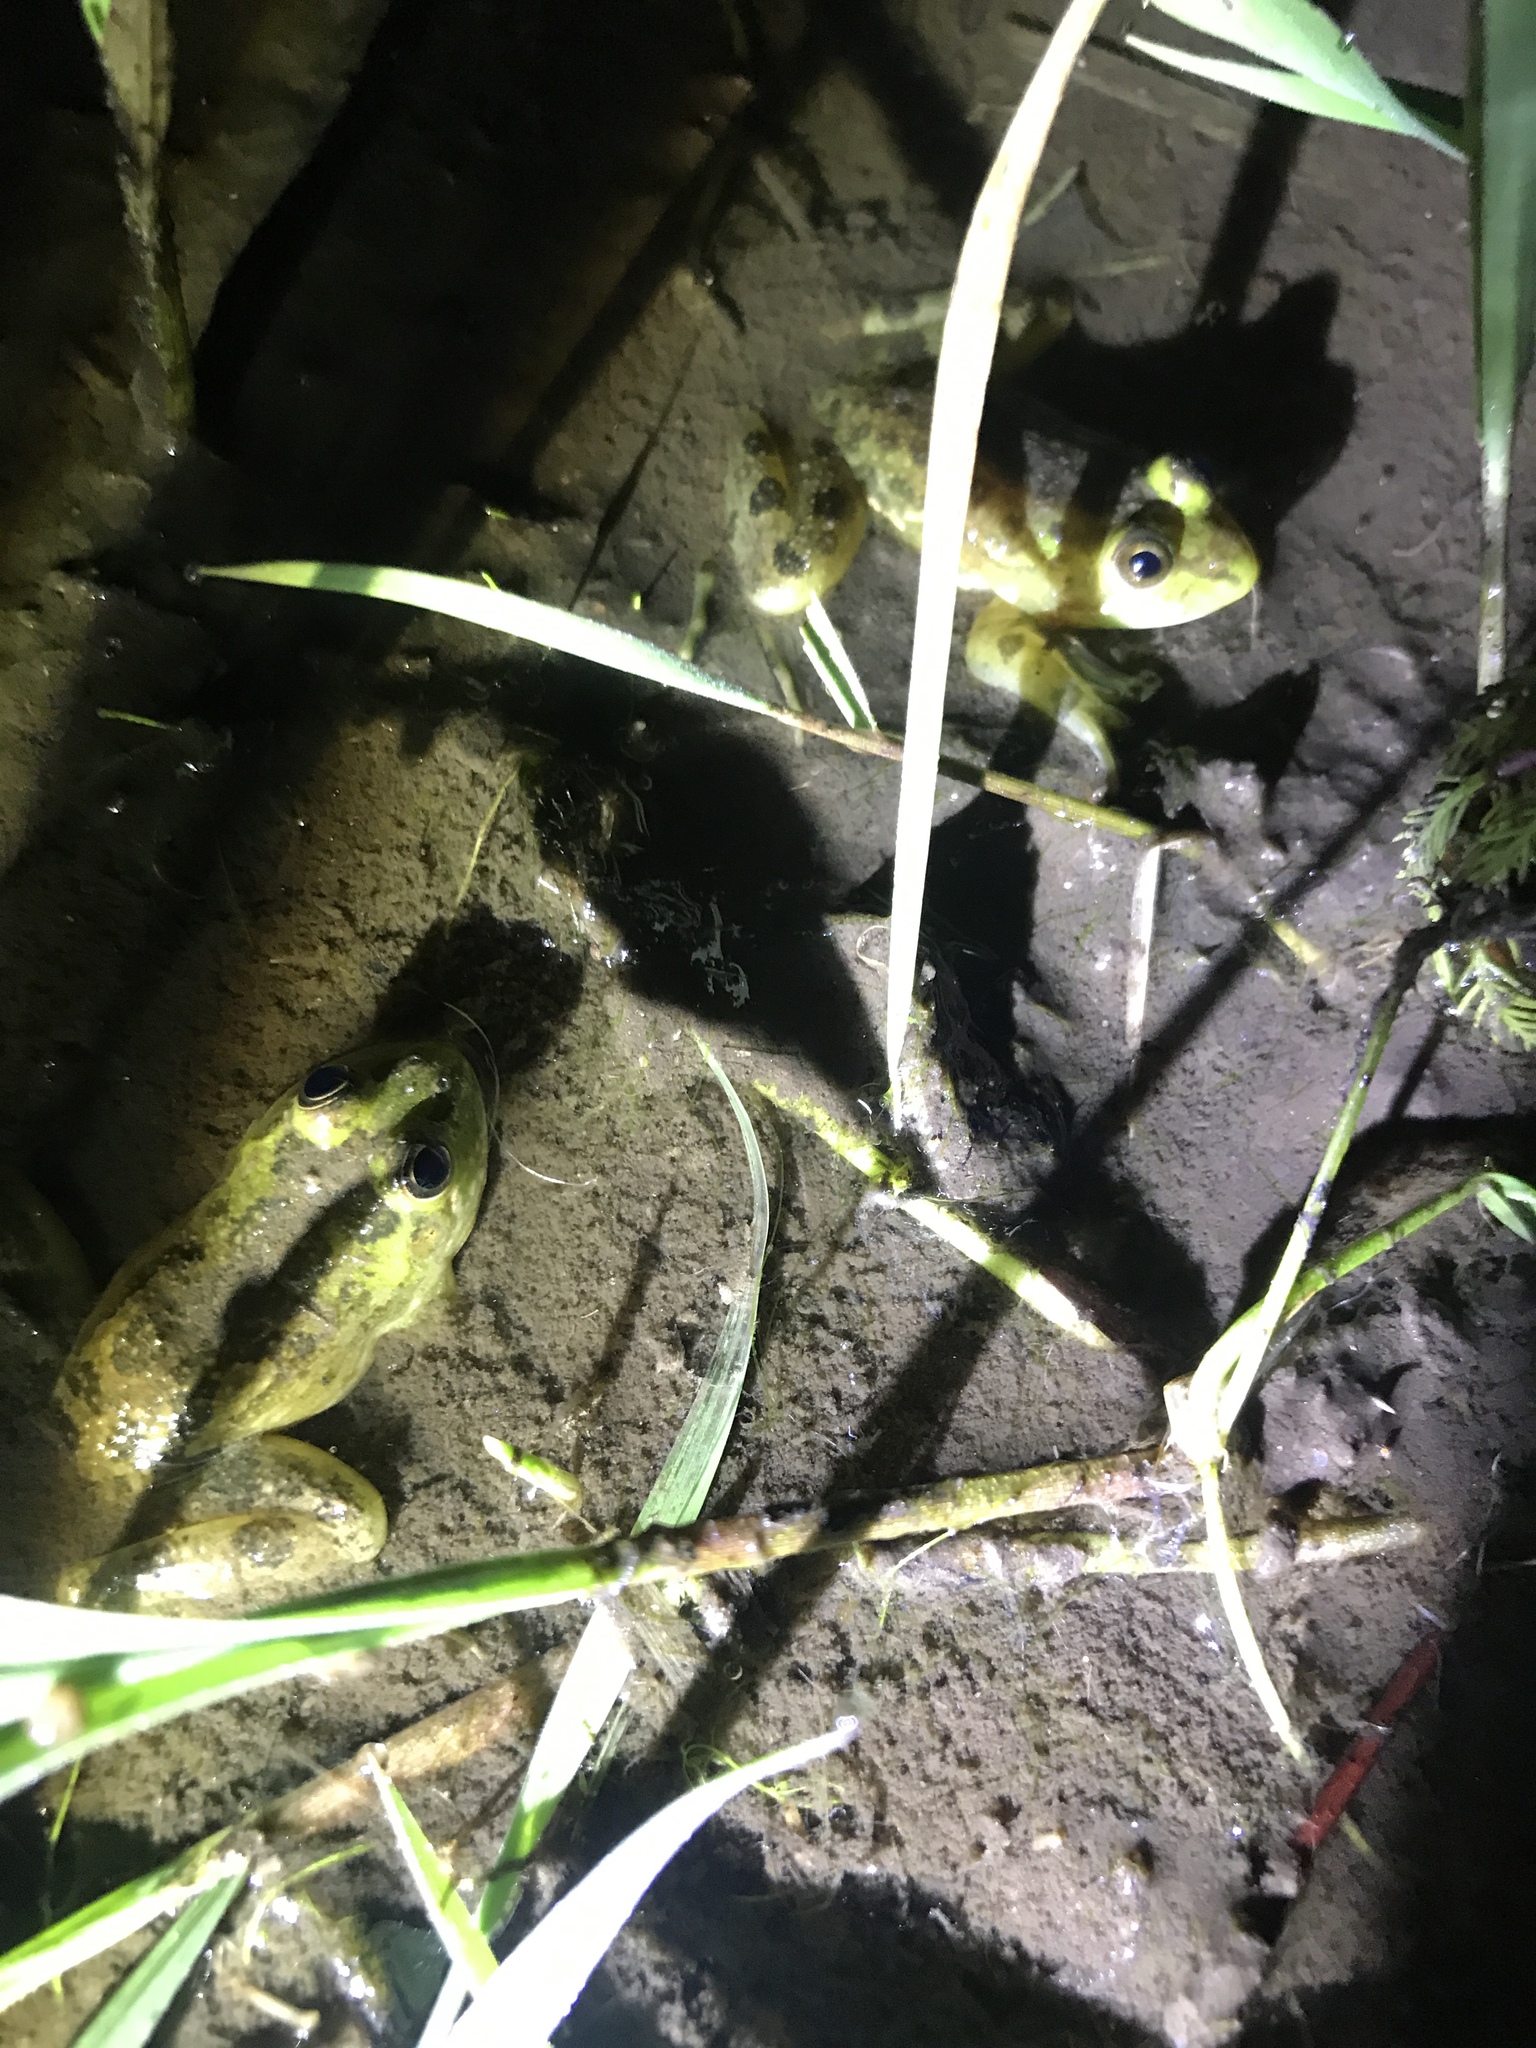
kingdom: Animalia
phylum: Chordata
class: Amphibia
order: Anura
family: Hylidae
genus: Pseudis
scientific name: Pseudis minuta
